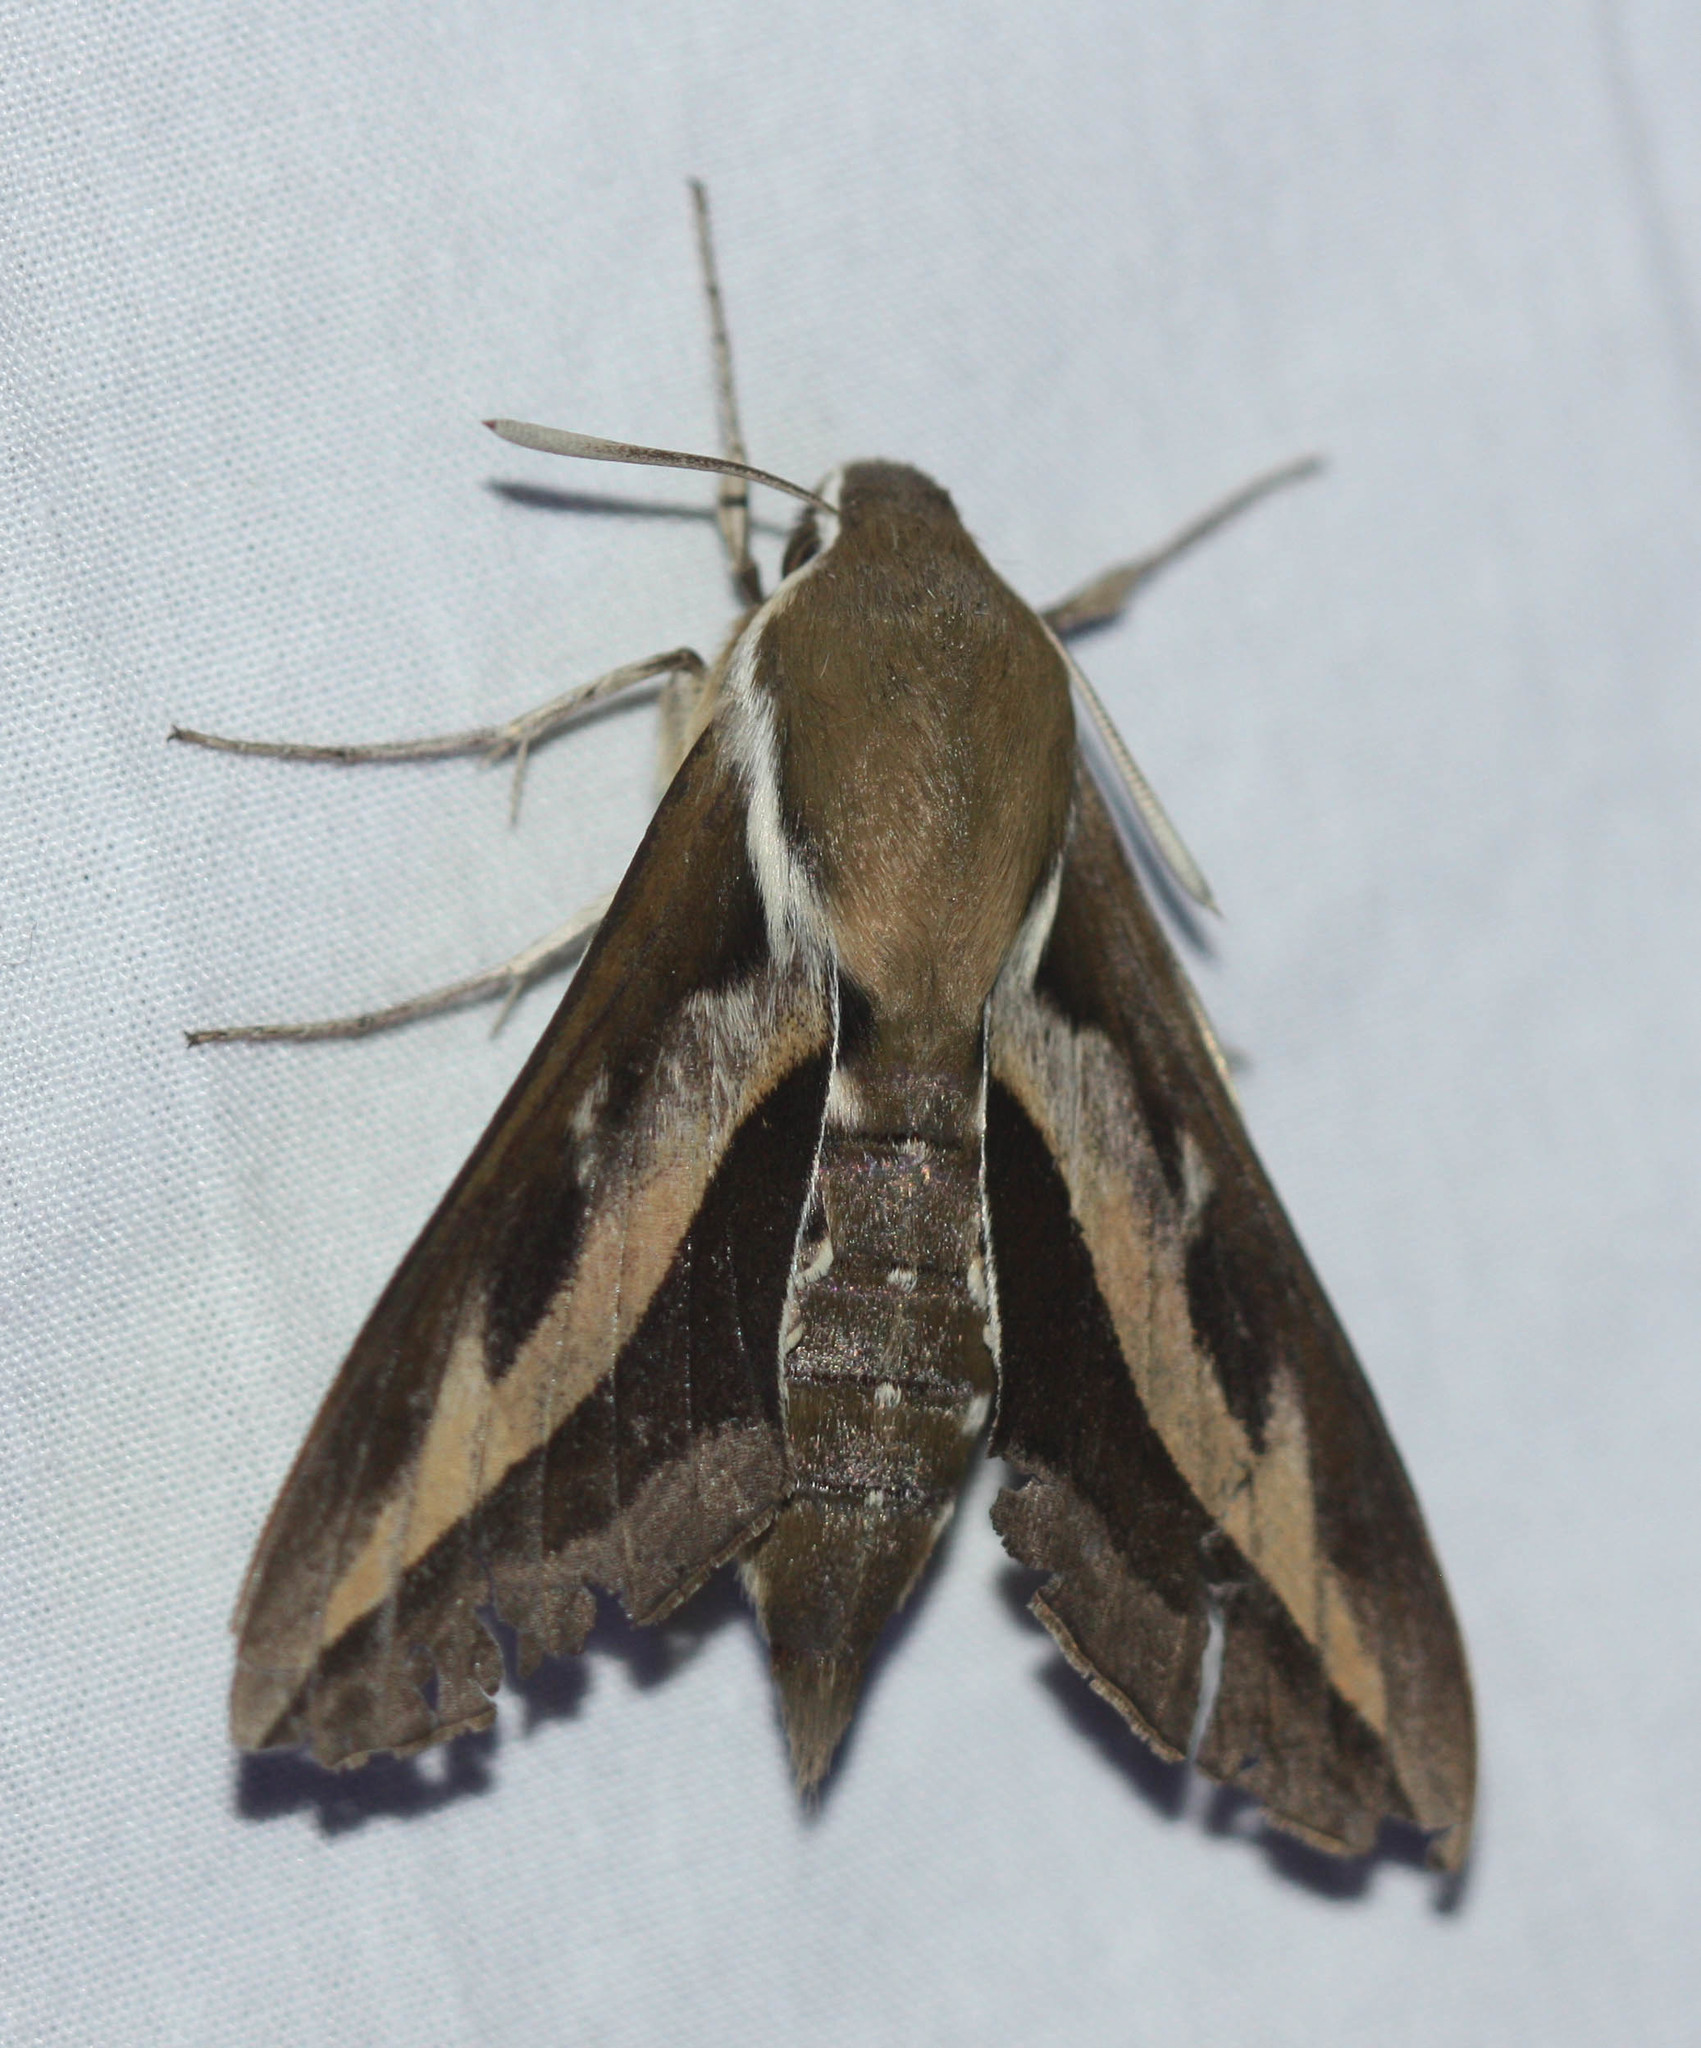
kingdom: Animalia
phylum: Arthropoda
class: Insecta
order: Lepidoptera
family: Sphingidae
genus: Hyles
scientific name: Hyles gallii
